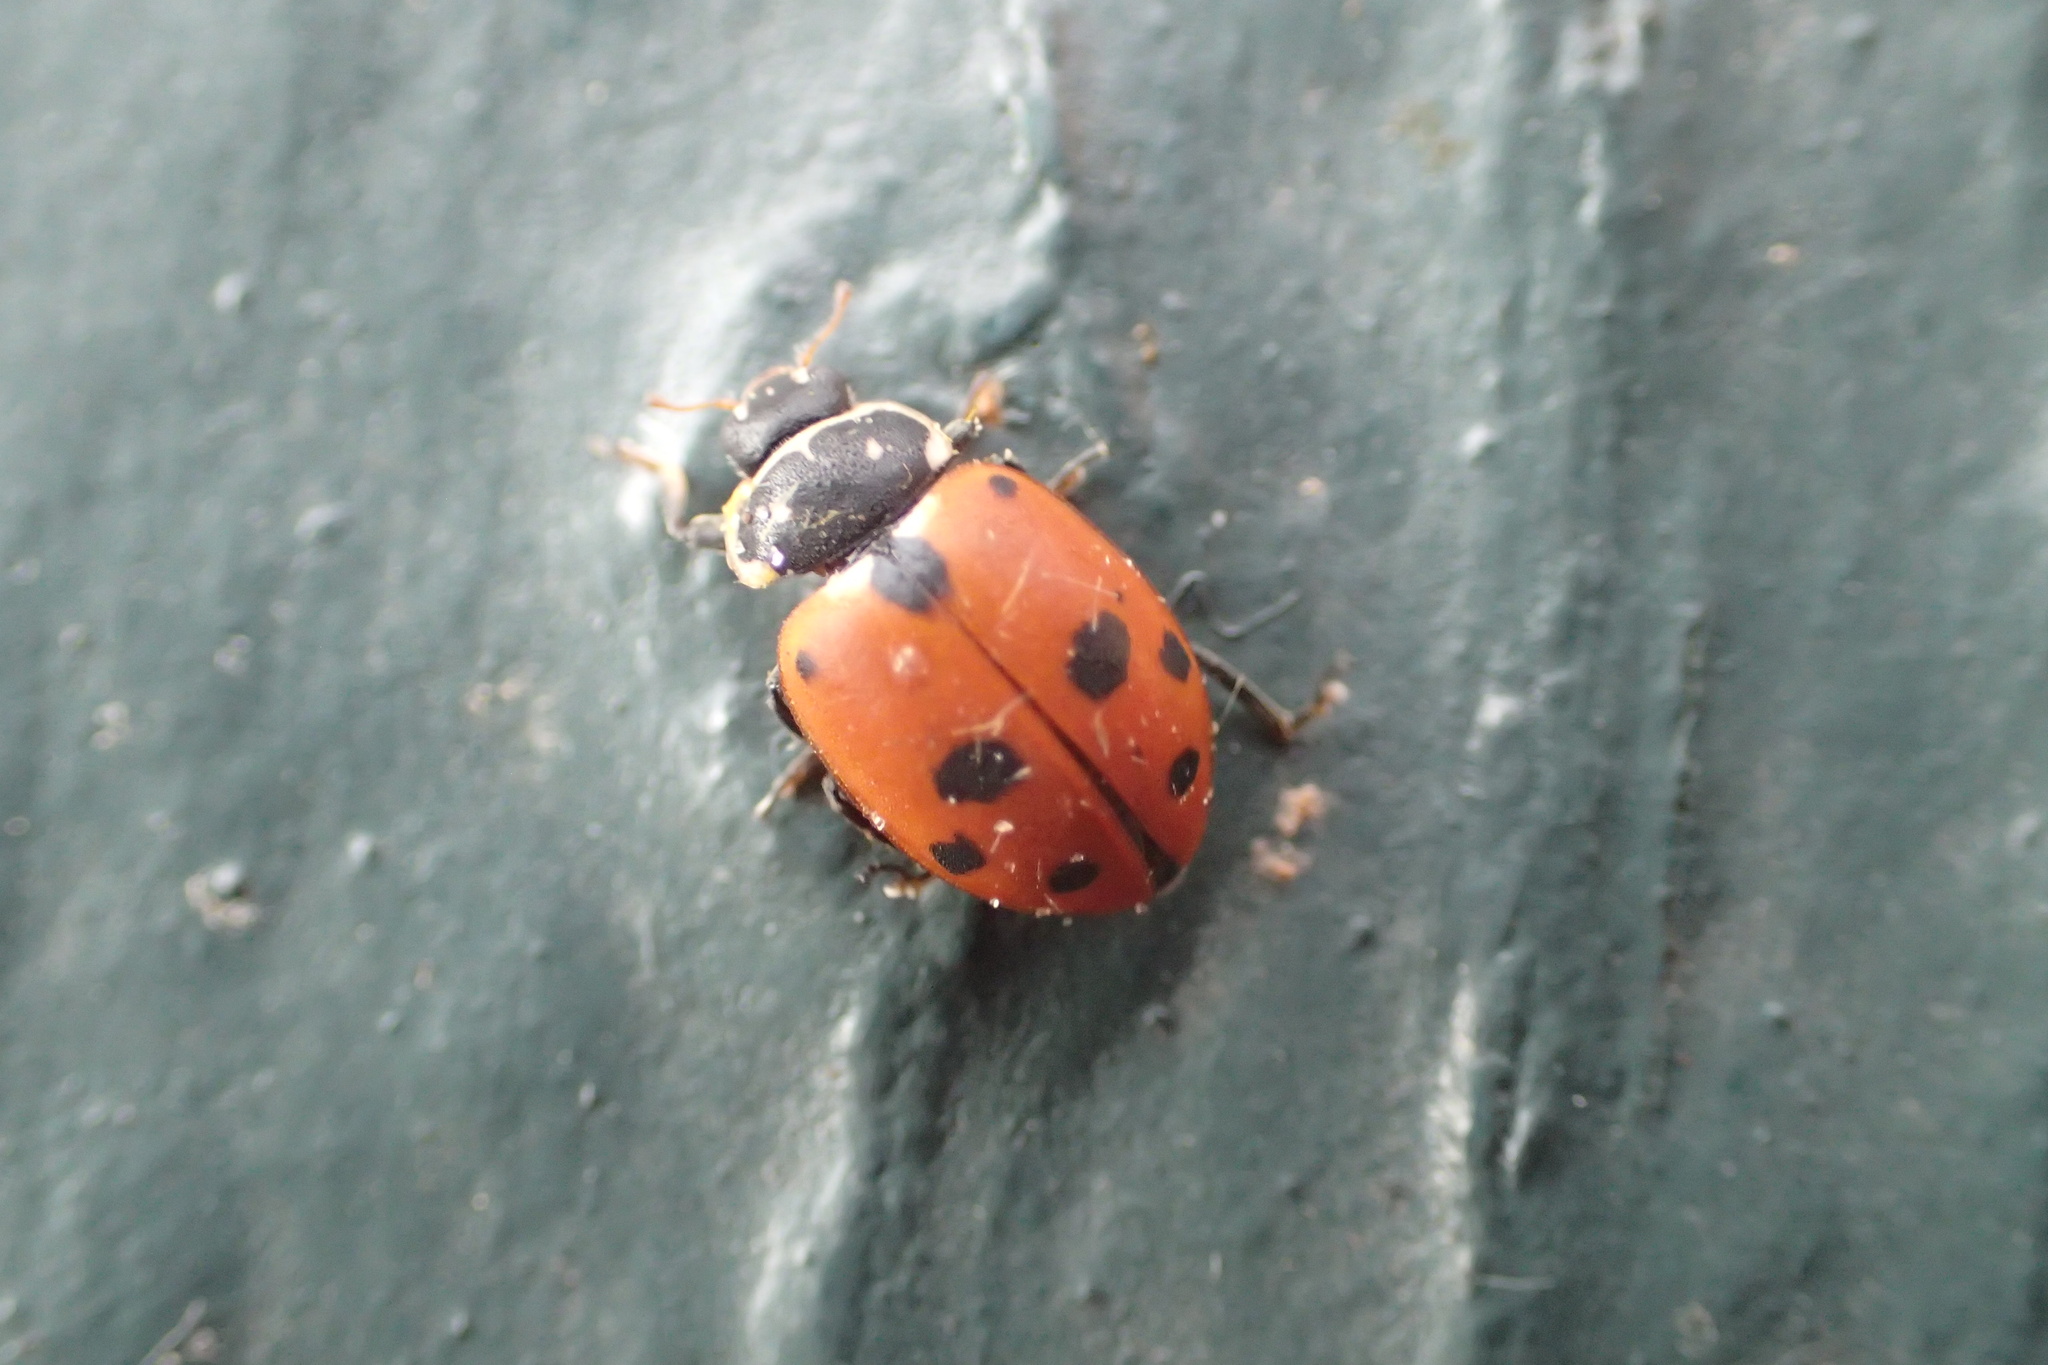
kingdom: Animalia
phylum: Arthropoda
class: Insecta
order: Coleoptera
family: Coccinellidae
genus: Hippodamia
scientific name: Hippodamia variegata
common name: Ladybird beetle
